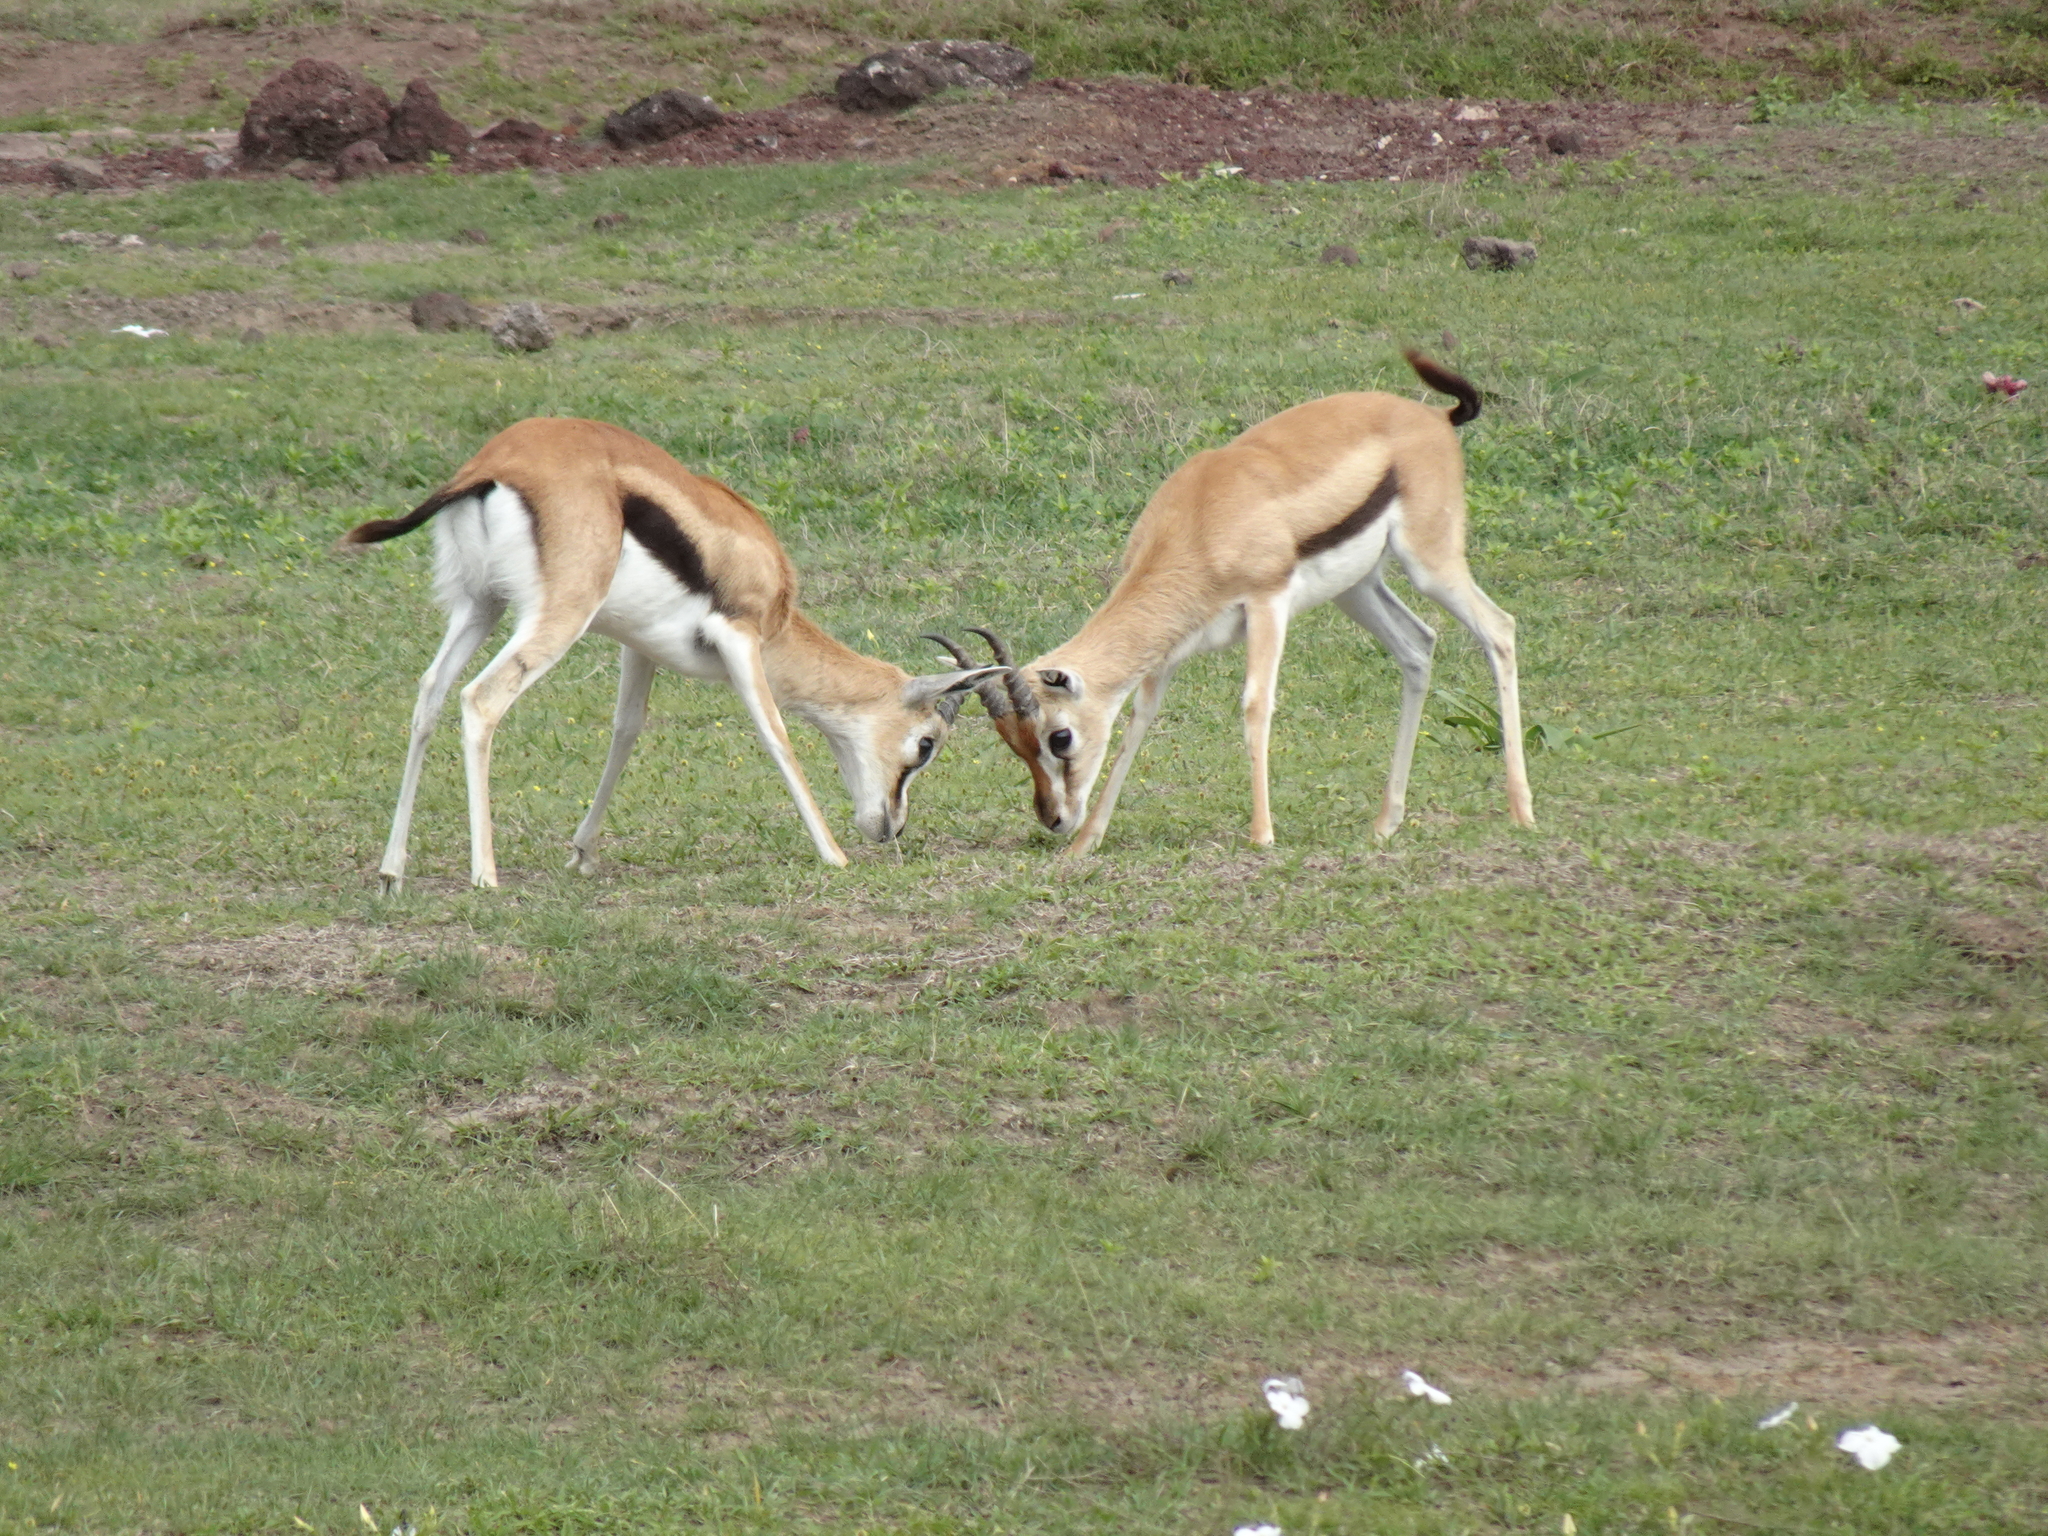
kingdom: Animalia
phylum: Chordata
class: Mammalia
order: Artiodactyla
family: Bovidae
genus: Eudorcas
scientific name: Eudorcas thomsonii
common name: Thomson's gazelle
